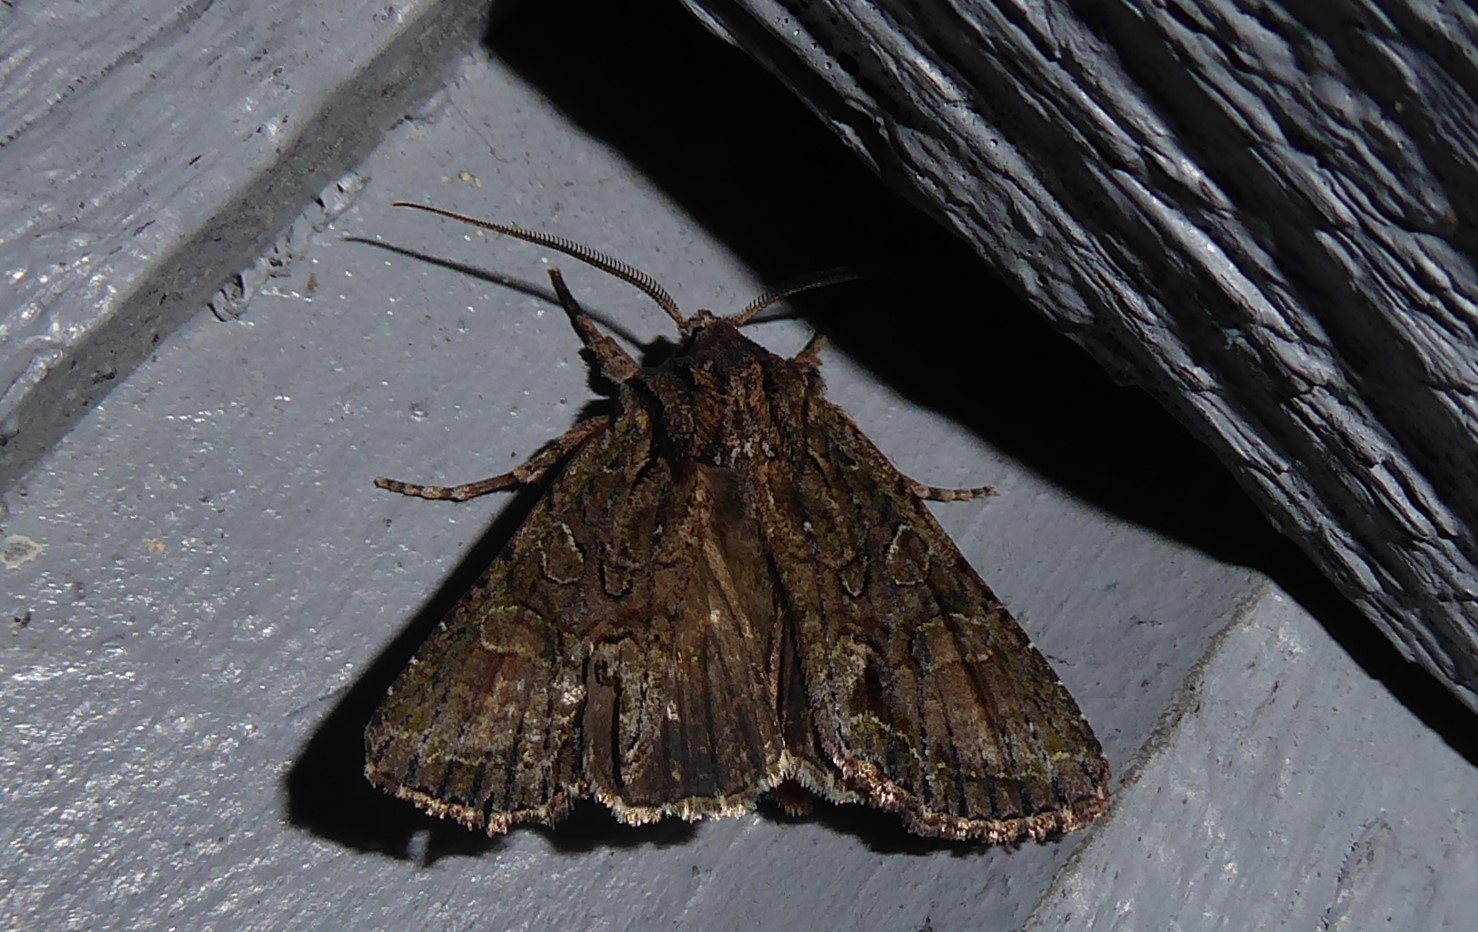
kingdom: Animalia
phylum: Arthropoda
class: Insecta
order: Lepidoptera
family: Noctuidae
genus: Ichneutica
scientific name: Ichneutica mutans
